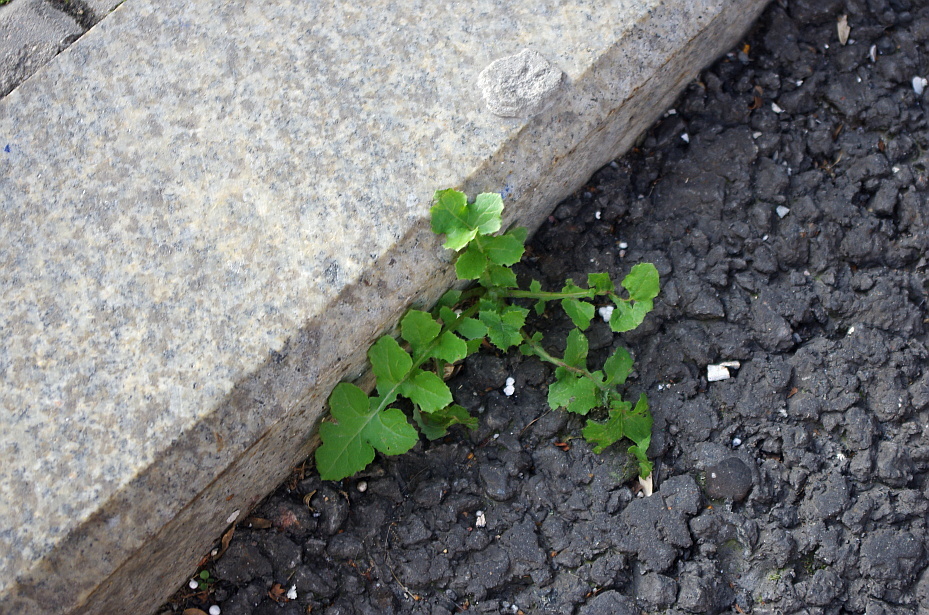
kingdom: Plantae
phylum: Tracheophyta
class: Magnoliopsida
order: Asterales
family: Asteraceae
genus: Sonchus
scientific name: Sonchus oleraceus
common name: Common sowthistle
